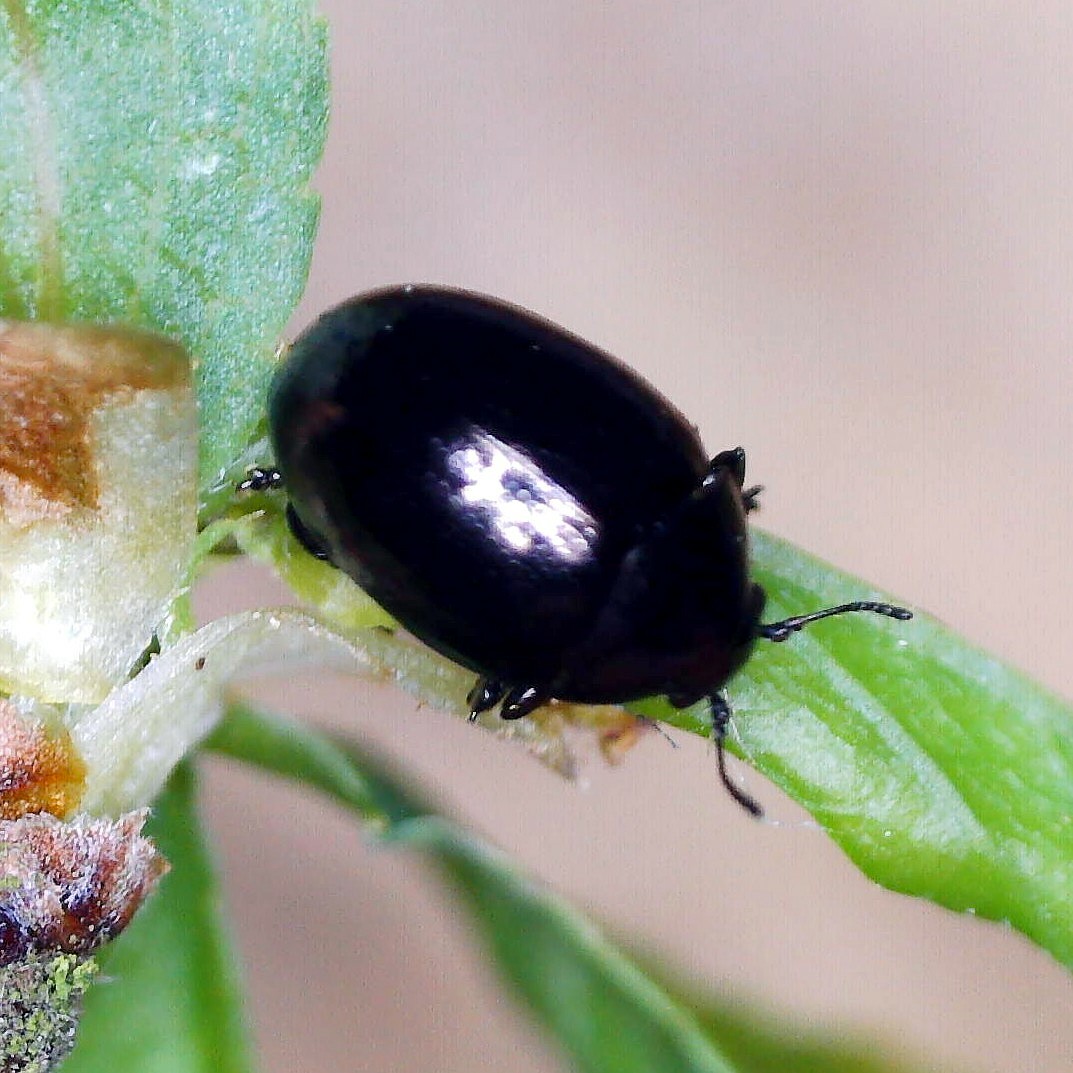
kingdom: Animalia
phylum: Arthropoda
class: Insecta
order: Coleoptera
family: Chrysomelidae
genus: Oomorphus
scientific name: Oomorphus concolor
